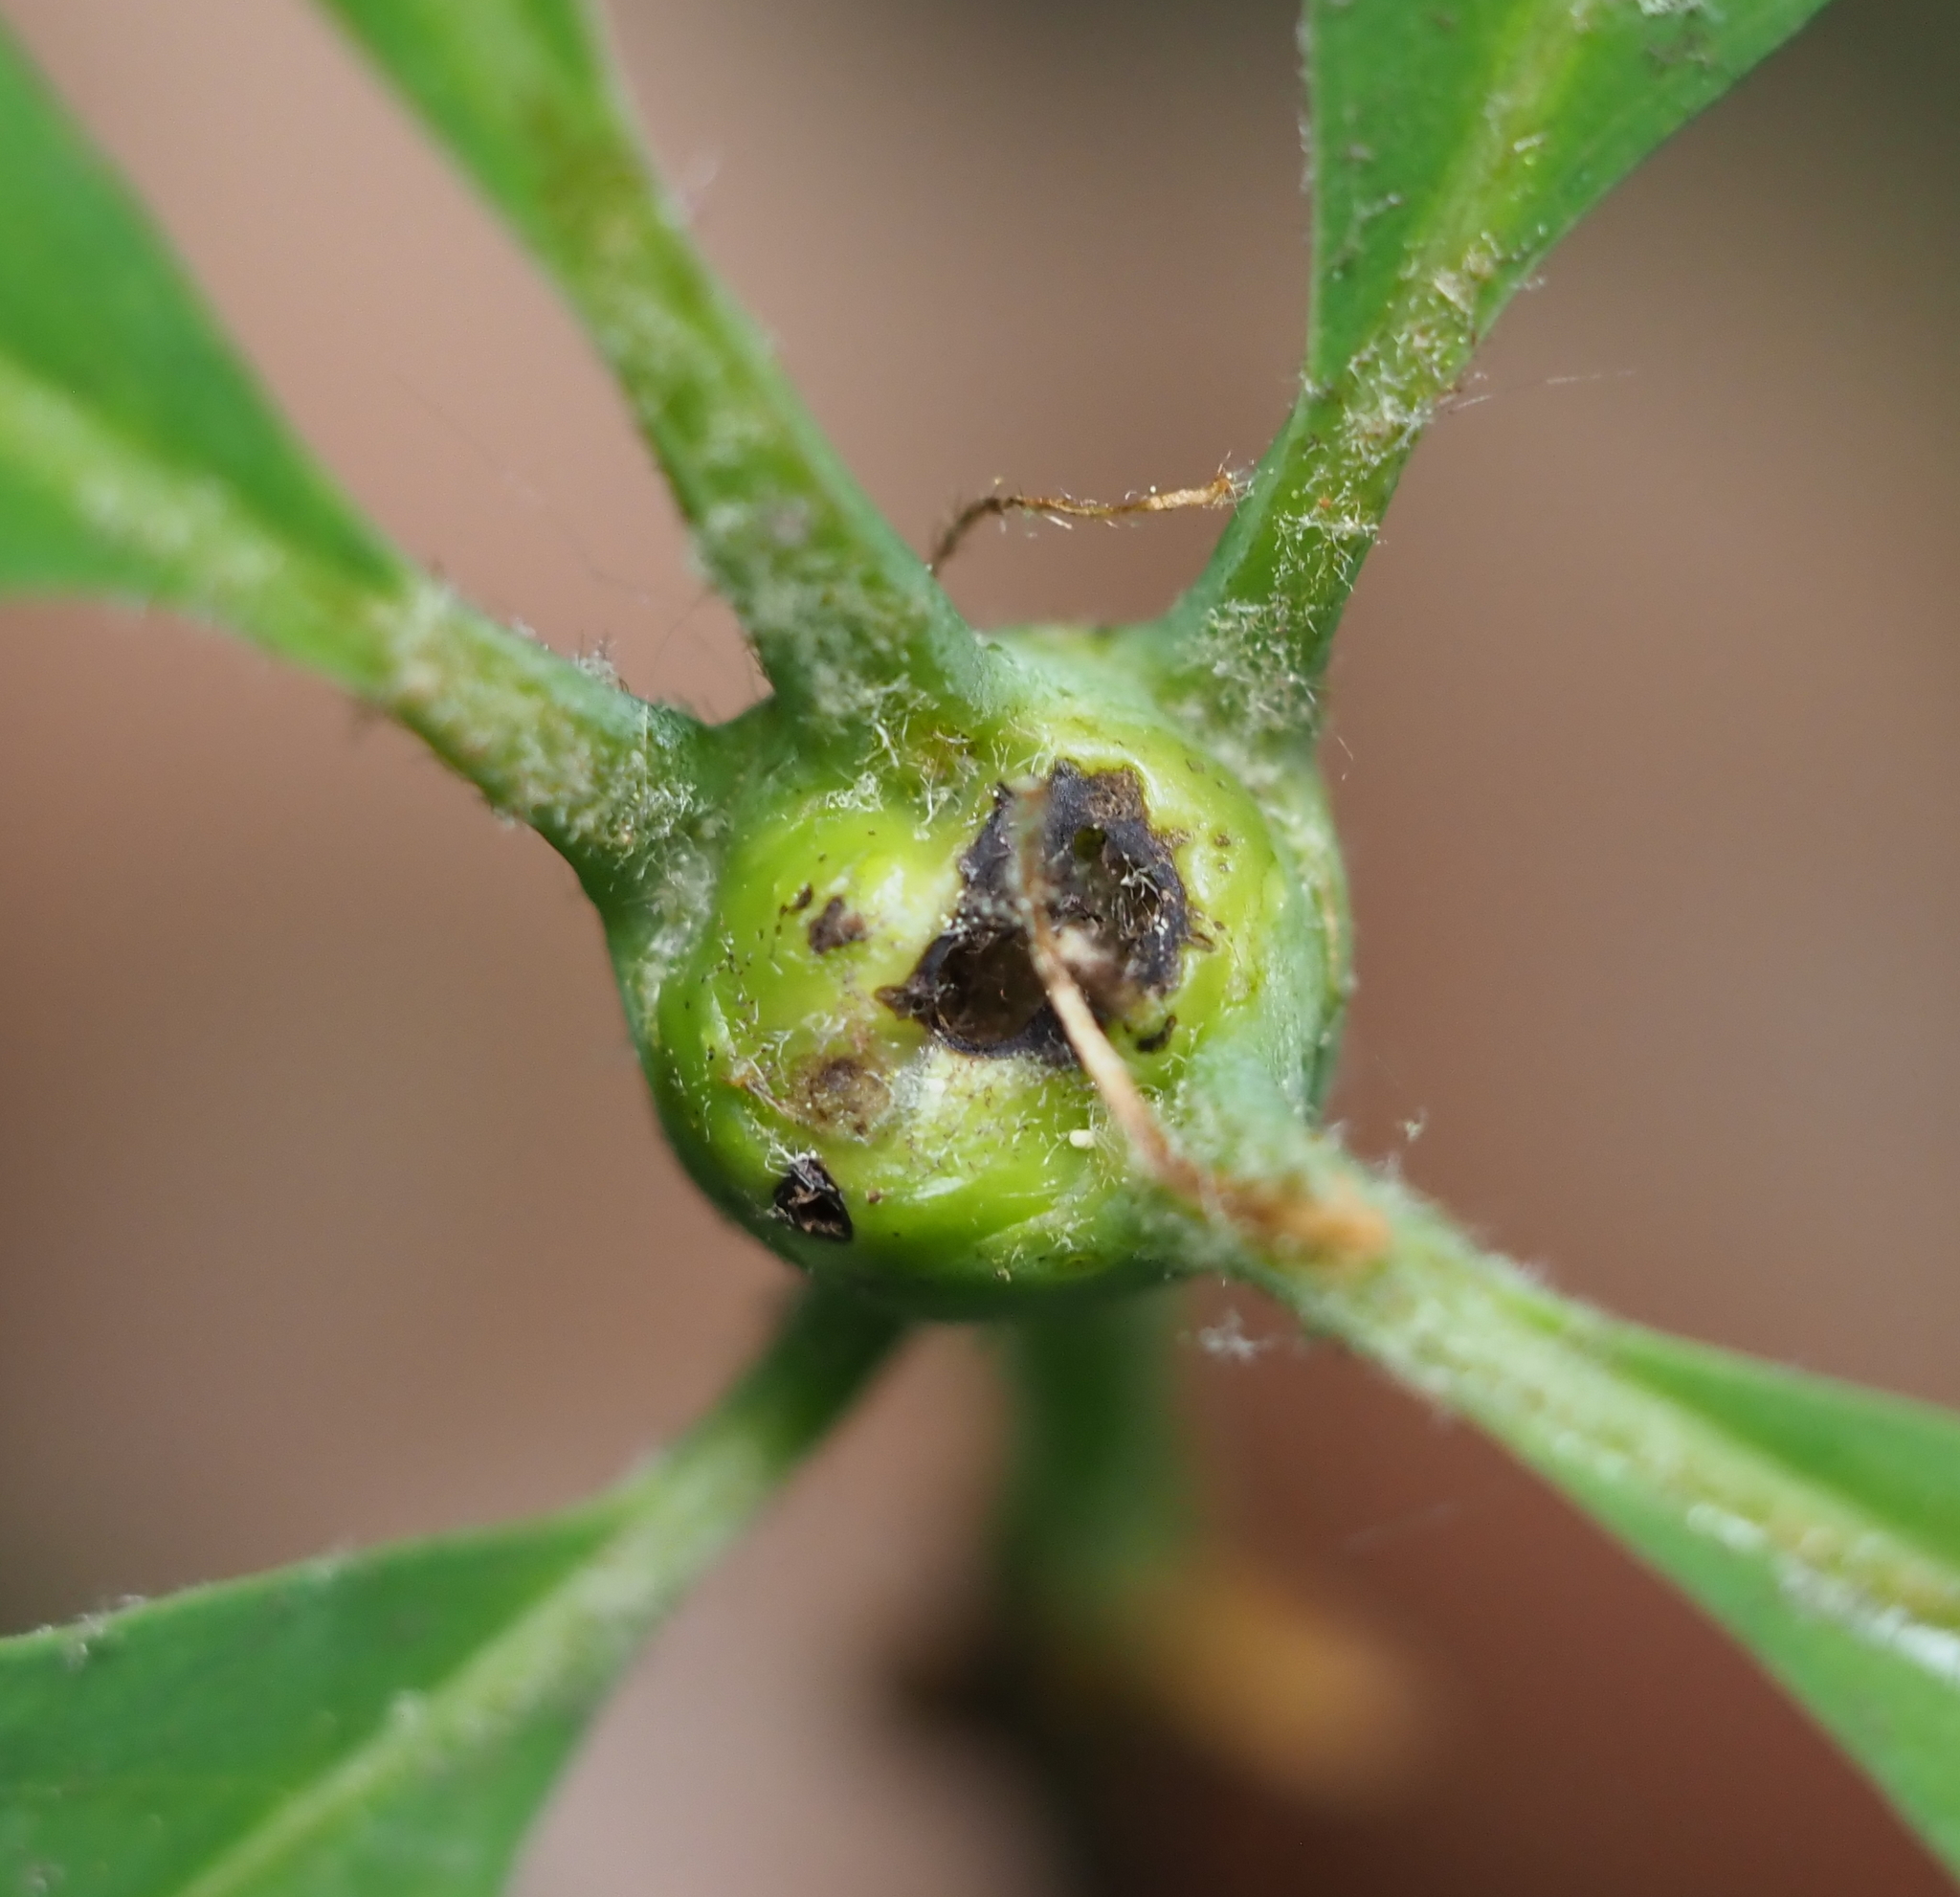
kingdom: Animalia
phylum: Arthropoda
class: Insecta
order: Hymenoptera
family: Cynipidae
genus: Callirhytis
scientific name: Callirhytis clavula
